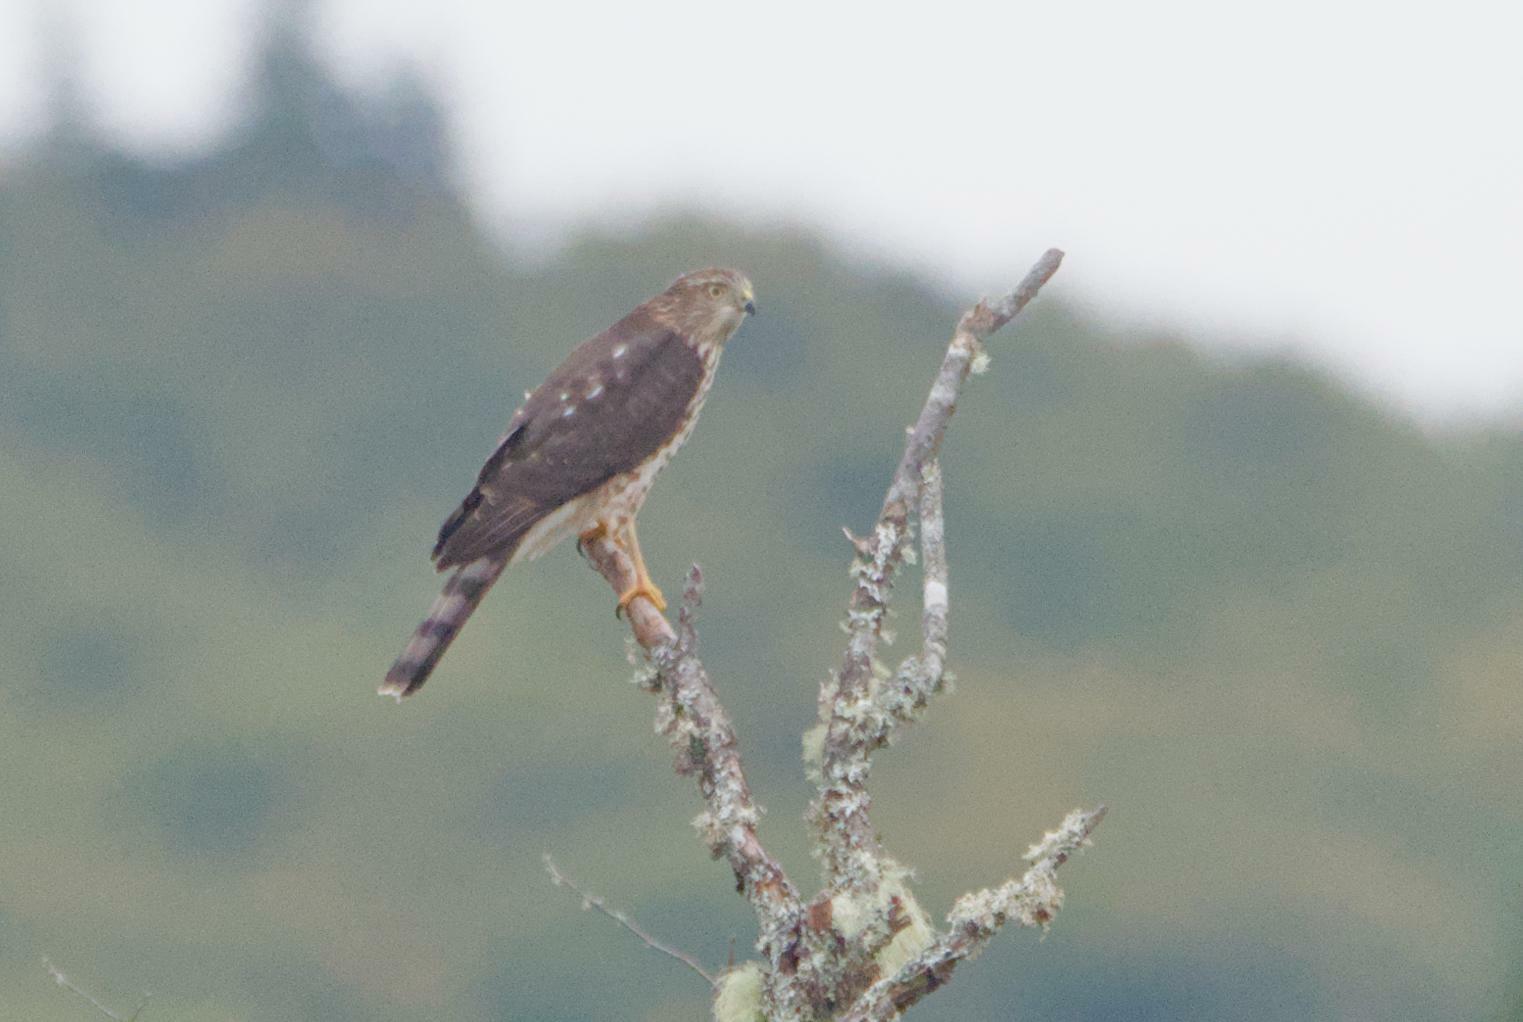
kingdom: Animalia
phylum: Chordata
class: Aves
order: Accipitriformes
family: Accipitridae
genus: Accipiter
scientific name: Accipiter striatus
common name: Sharp-shinned hawk
